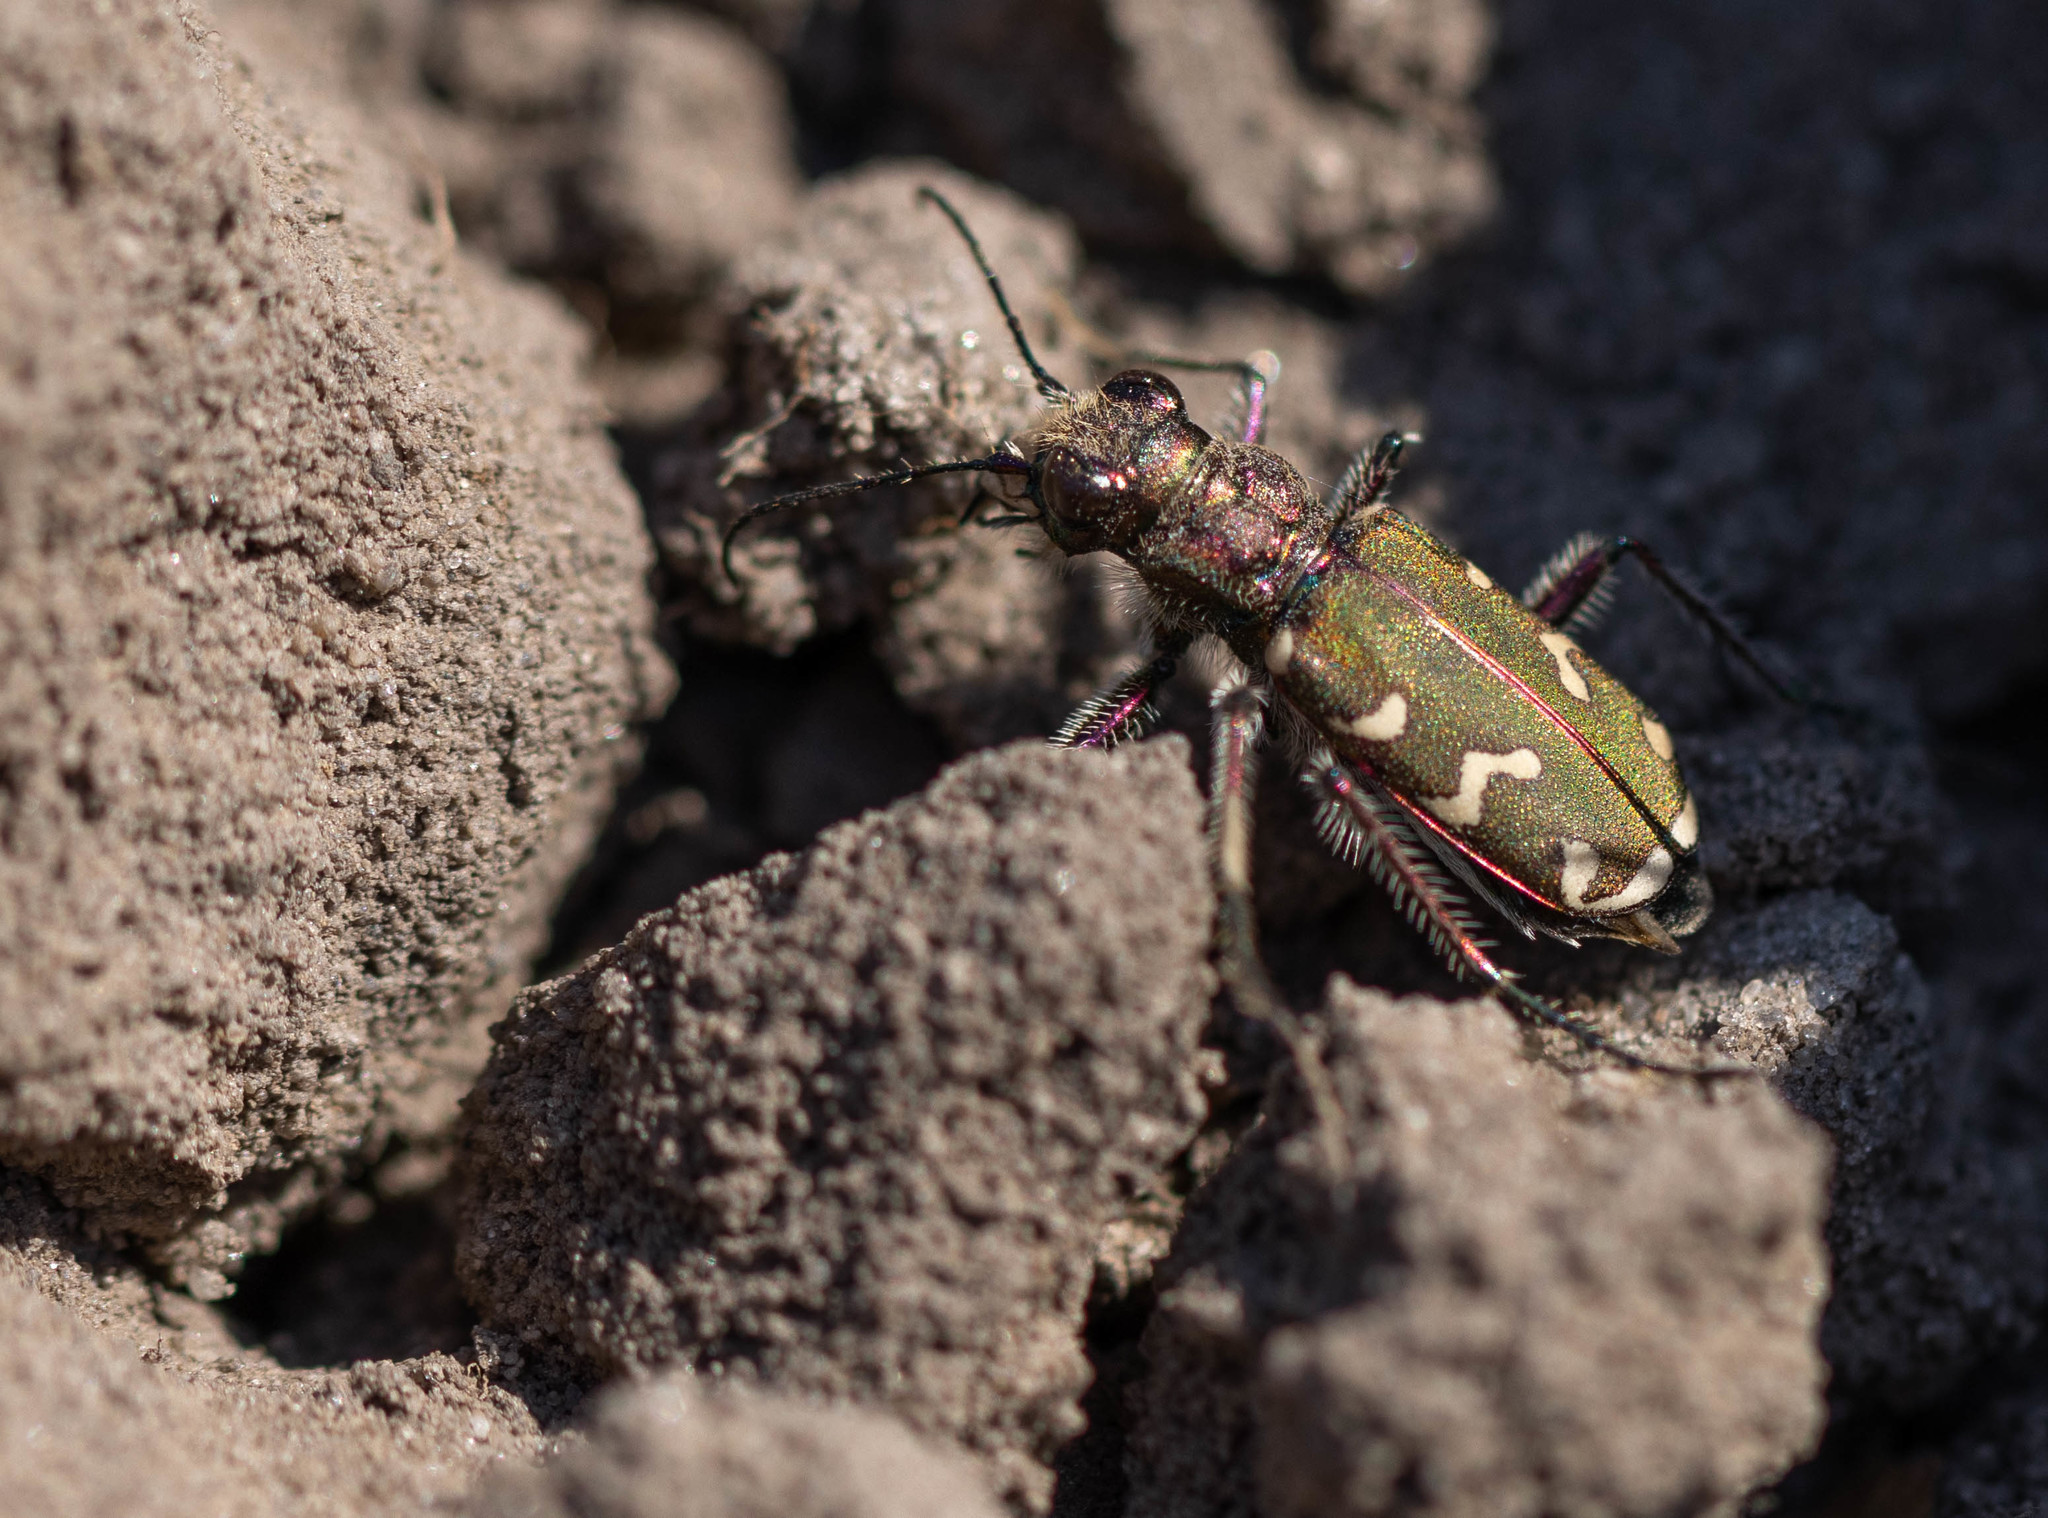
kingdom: Animalia
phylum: Arthropoda
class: Insecta
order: Coleoptera
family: Carabidae
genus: Cicindela
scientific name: Cicindela soluta
